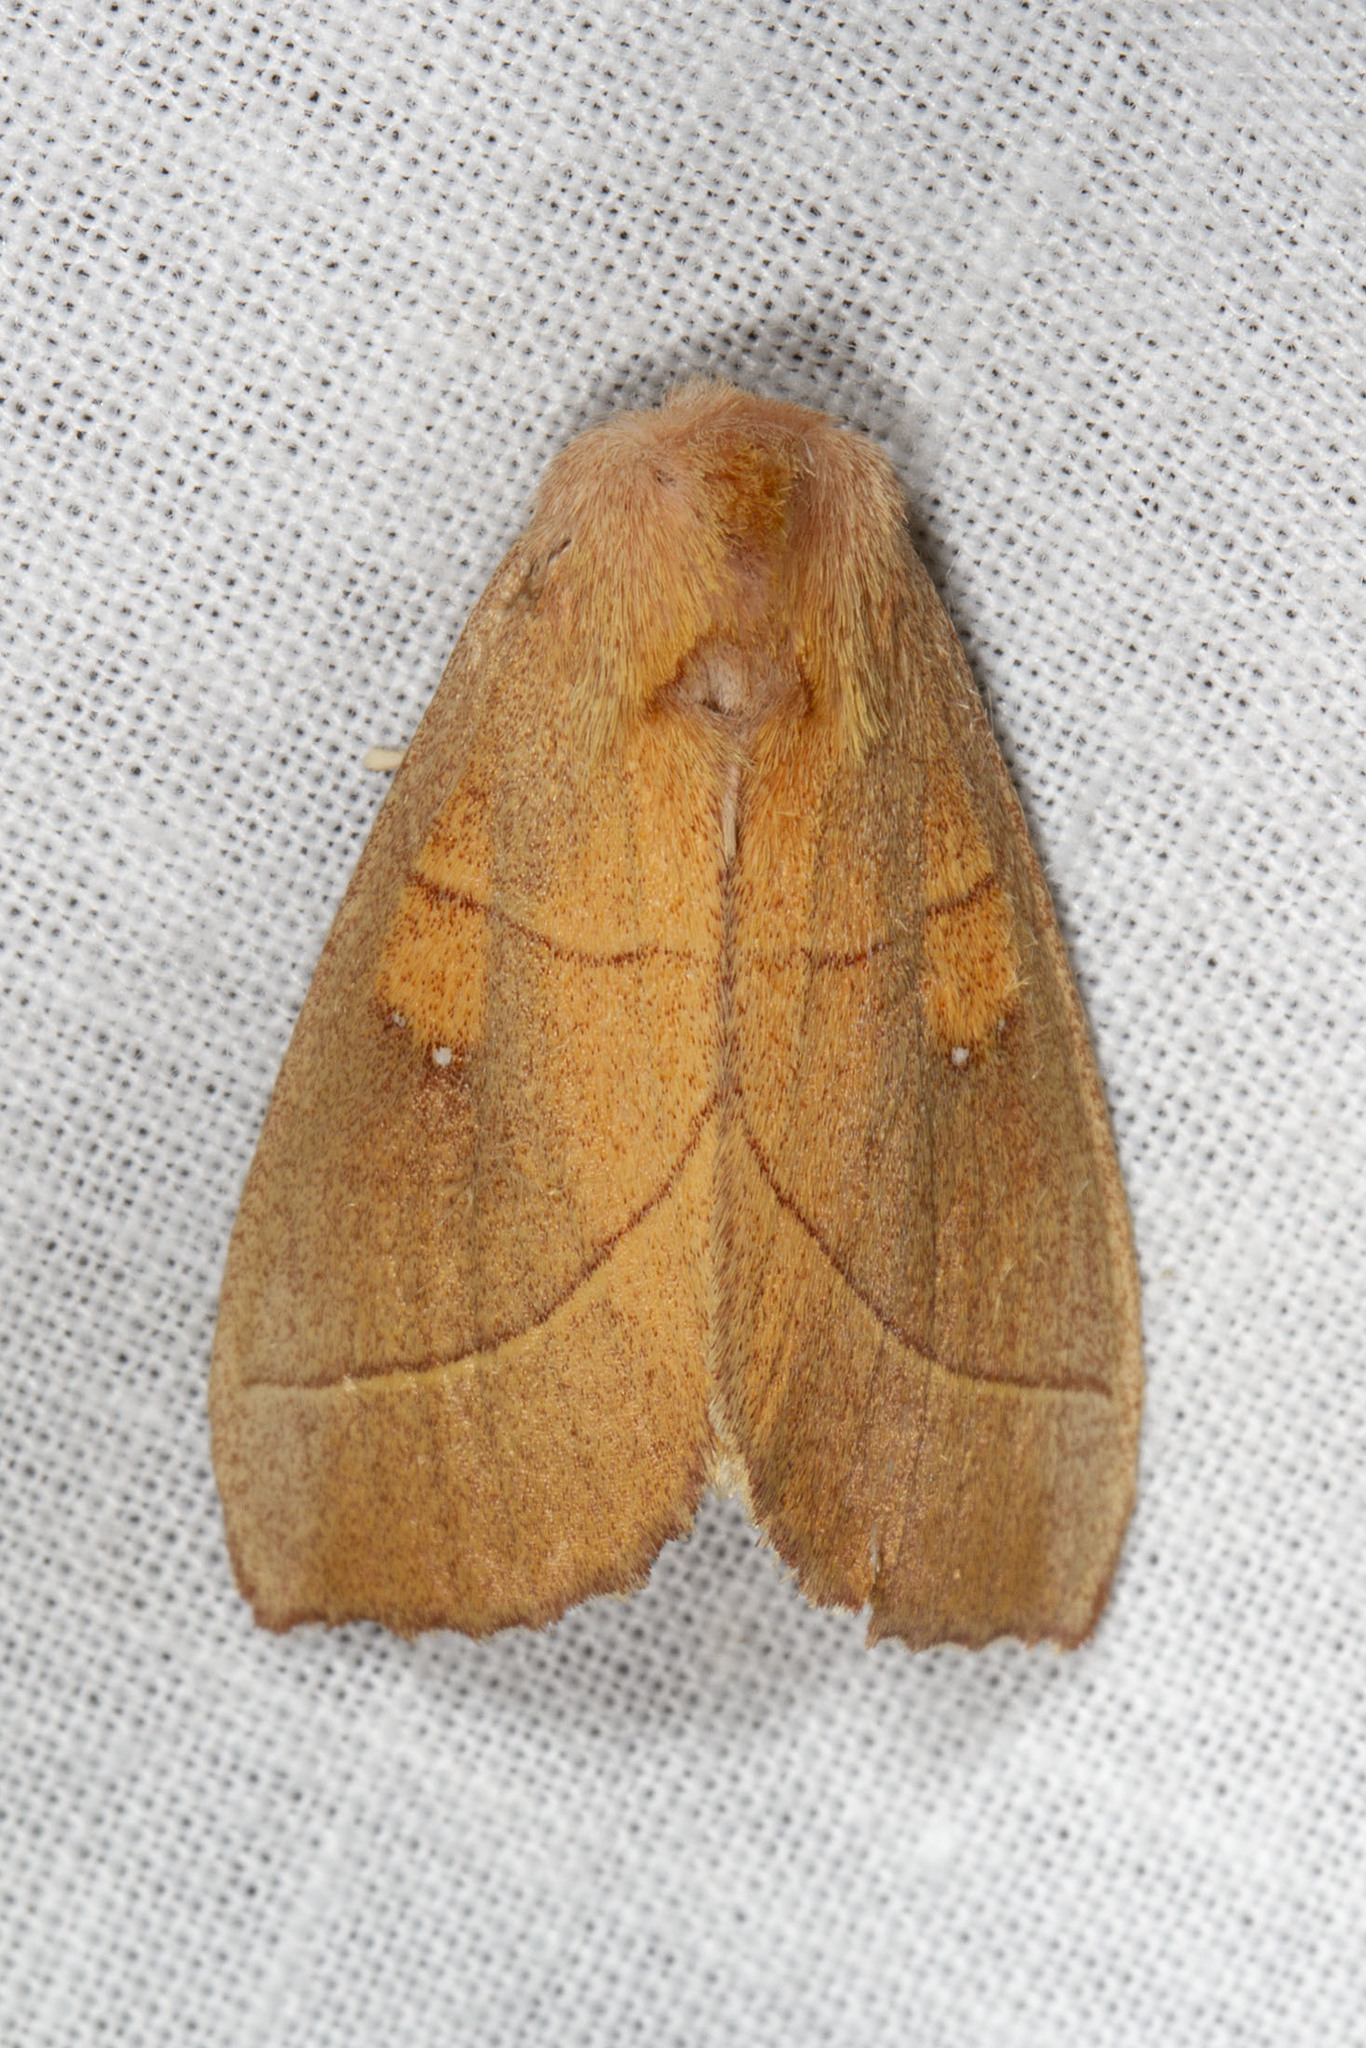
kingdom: Animalia
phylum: Arthropoda
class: Insecta
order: Lepidoptera
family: Notodontidae
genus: Nadata
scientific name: Nadata gibbosa
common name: White-dotted prominent
